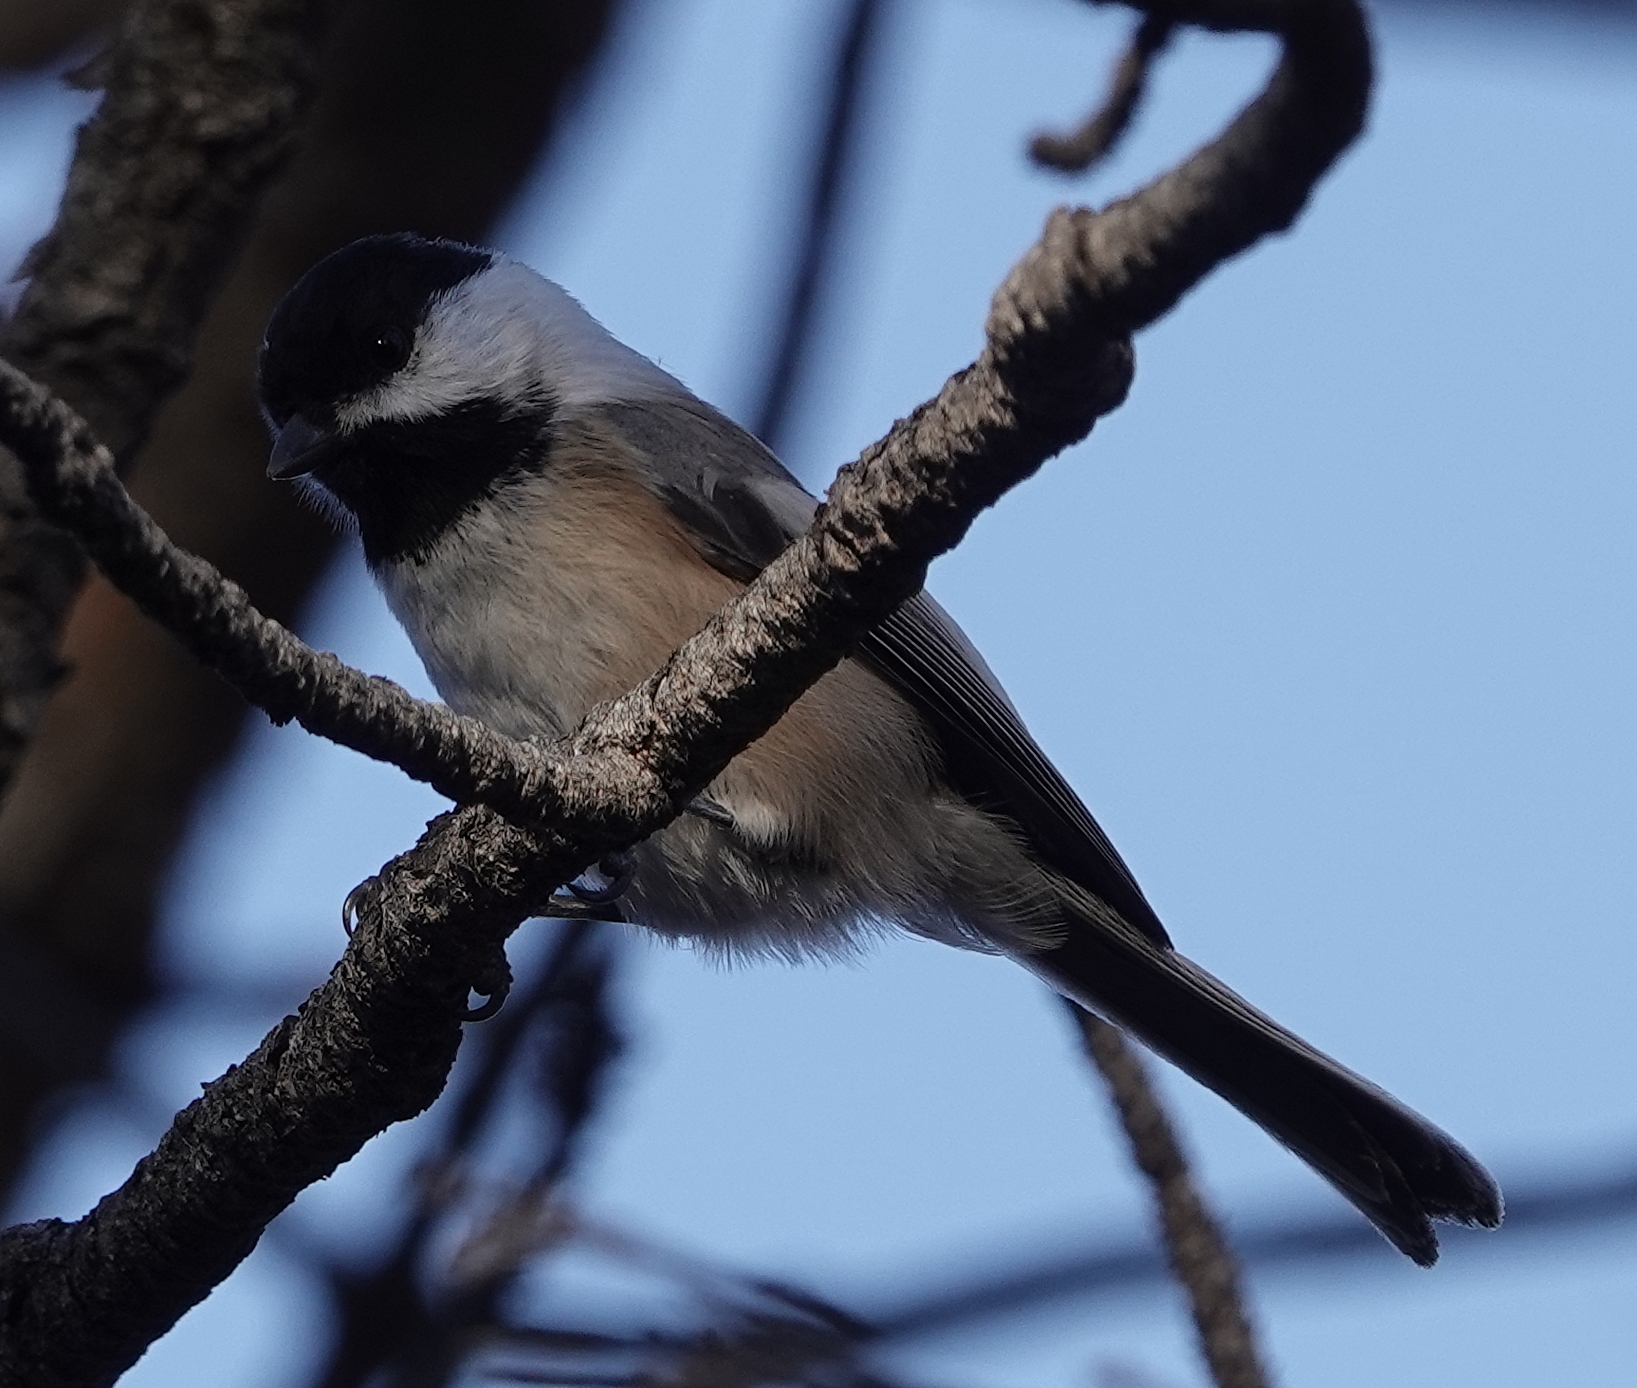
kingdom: Animalia
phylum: Chordata
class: Aves
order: Passeriformes
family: Paridae
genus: Poecile
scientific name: Poecile atricapillus
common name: Black-capped chickadee
